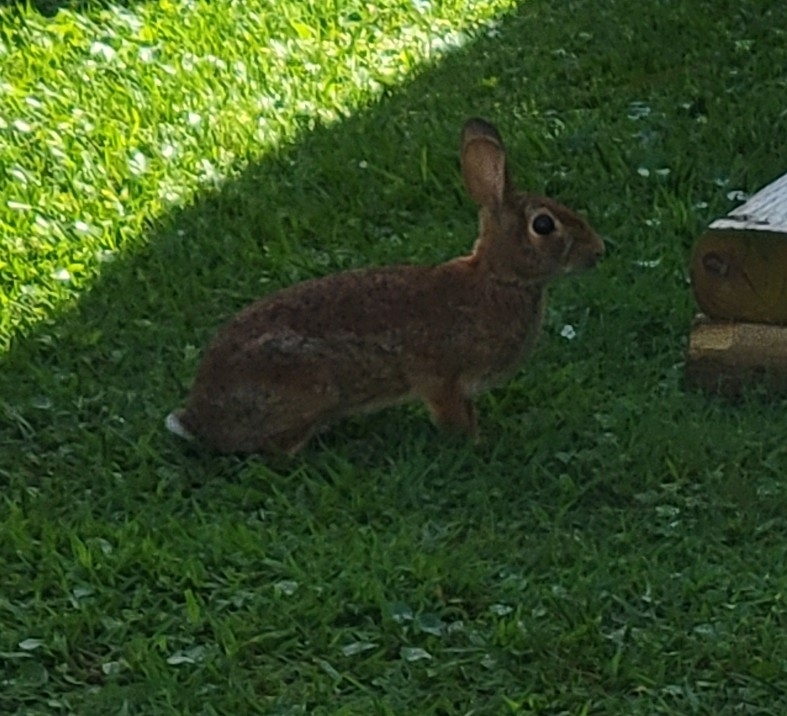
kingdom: Animalia
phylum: Chordata
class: Mammalia
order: Lagomorpha
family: Leporidae
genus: Sylvilagus
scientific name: Sylvilagus floridanus
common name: Eastern cottontail
